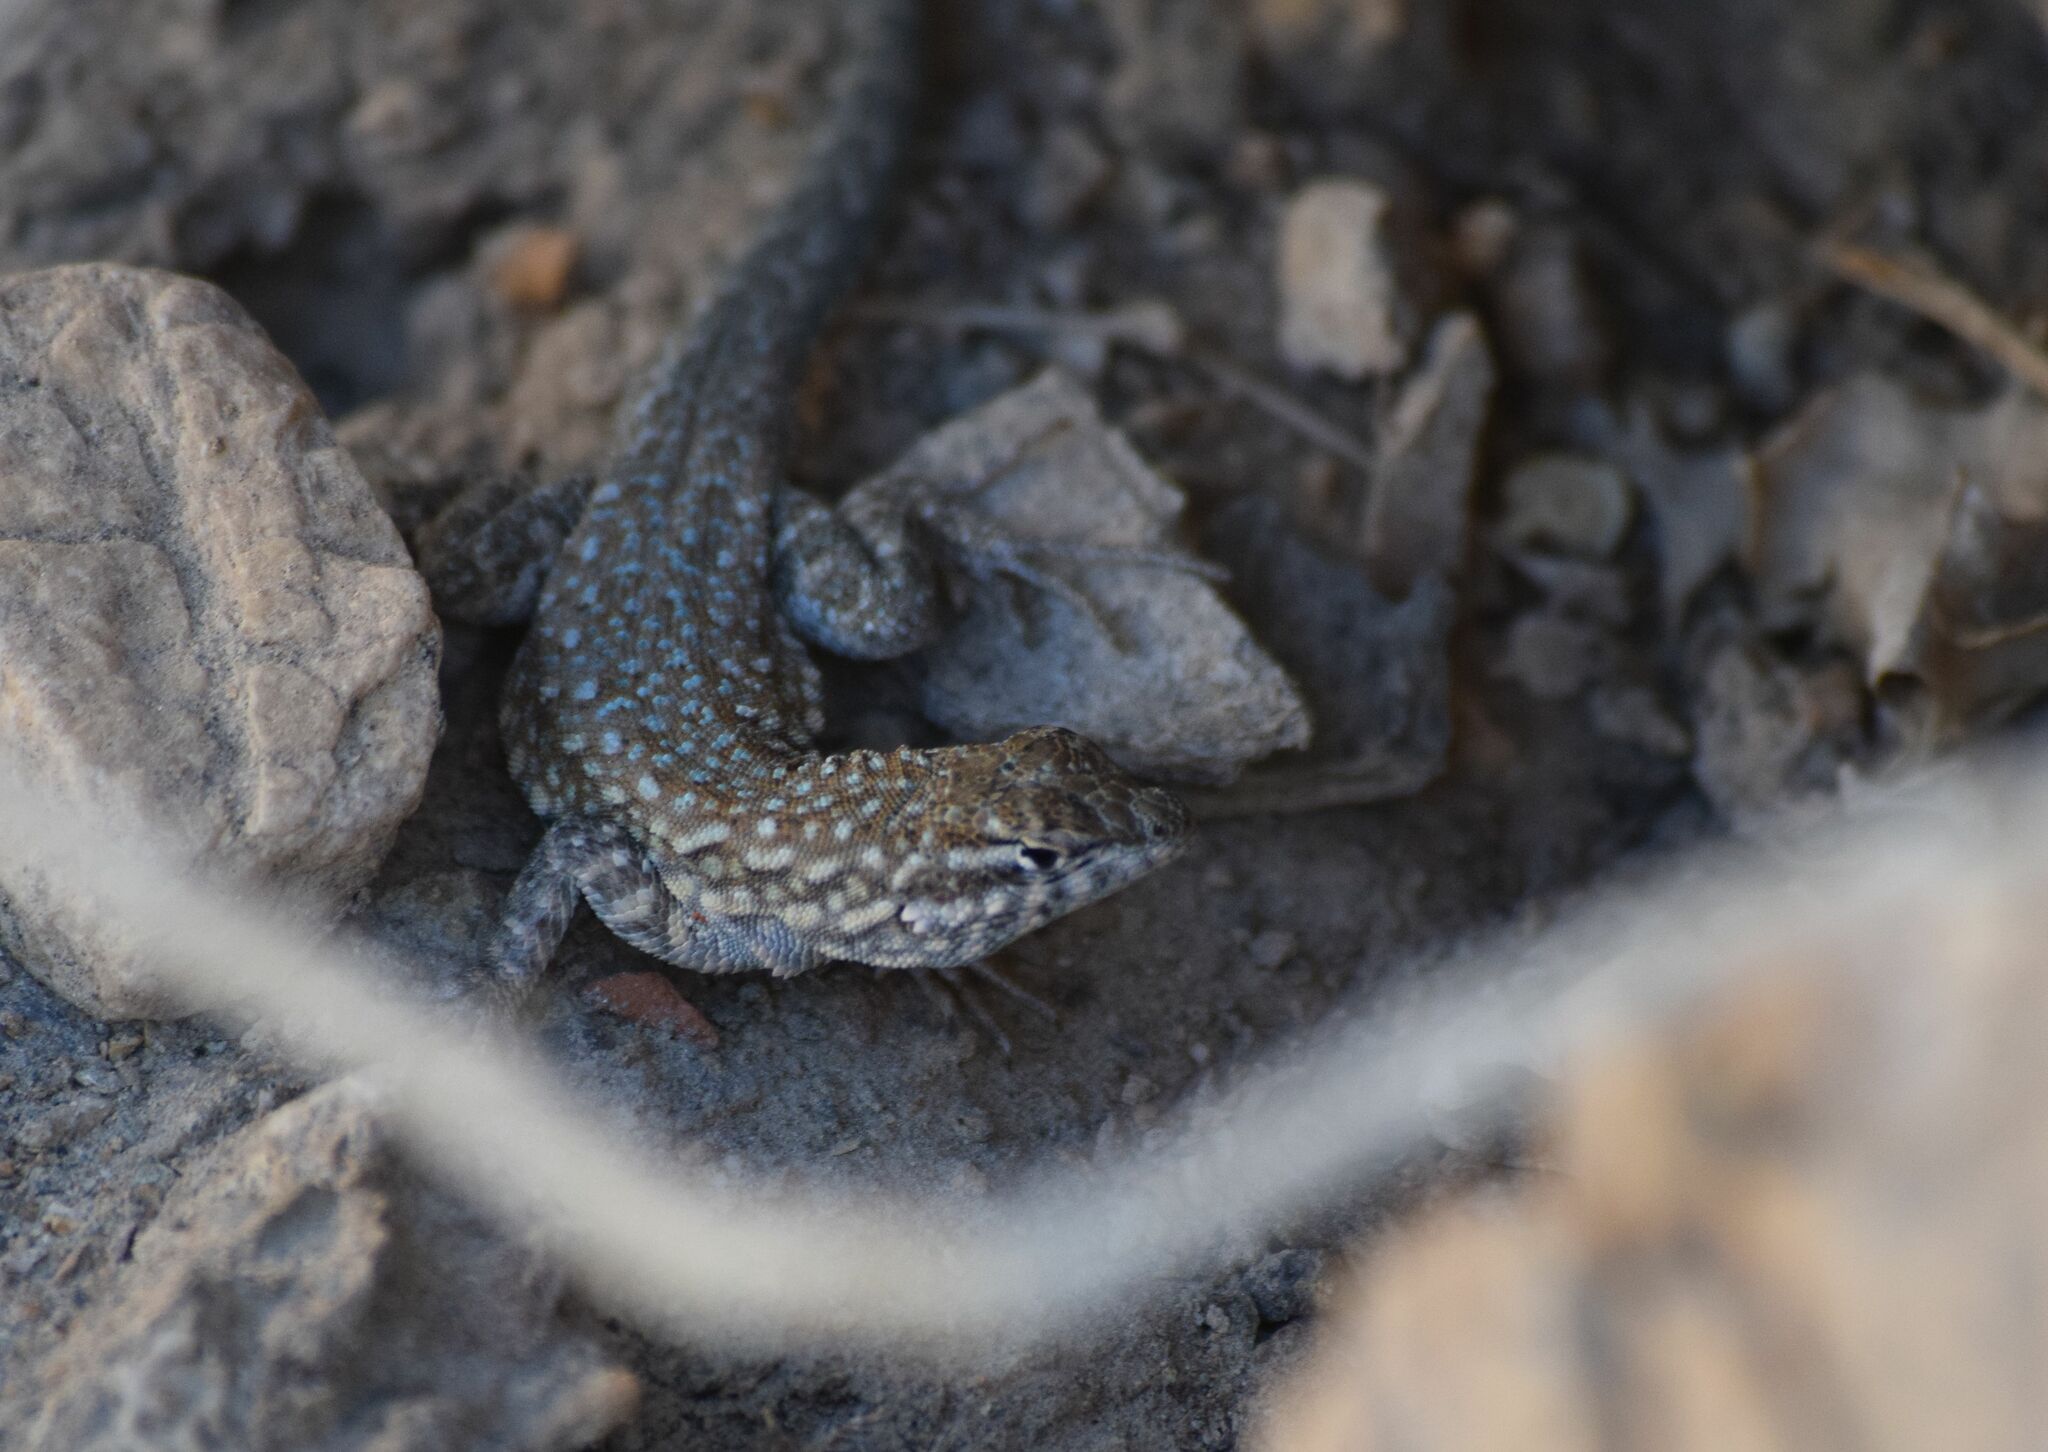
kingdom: Animalia
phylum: Chordata
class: Squamata
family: Phrynosomatidae
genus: Uta
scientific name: Uta stansburiana
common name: Side-blotched lizard
